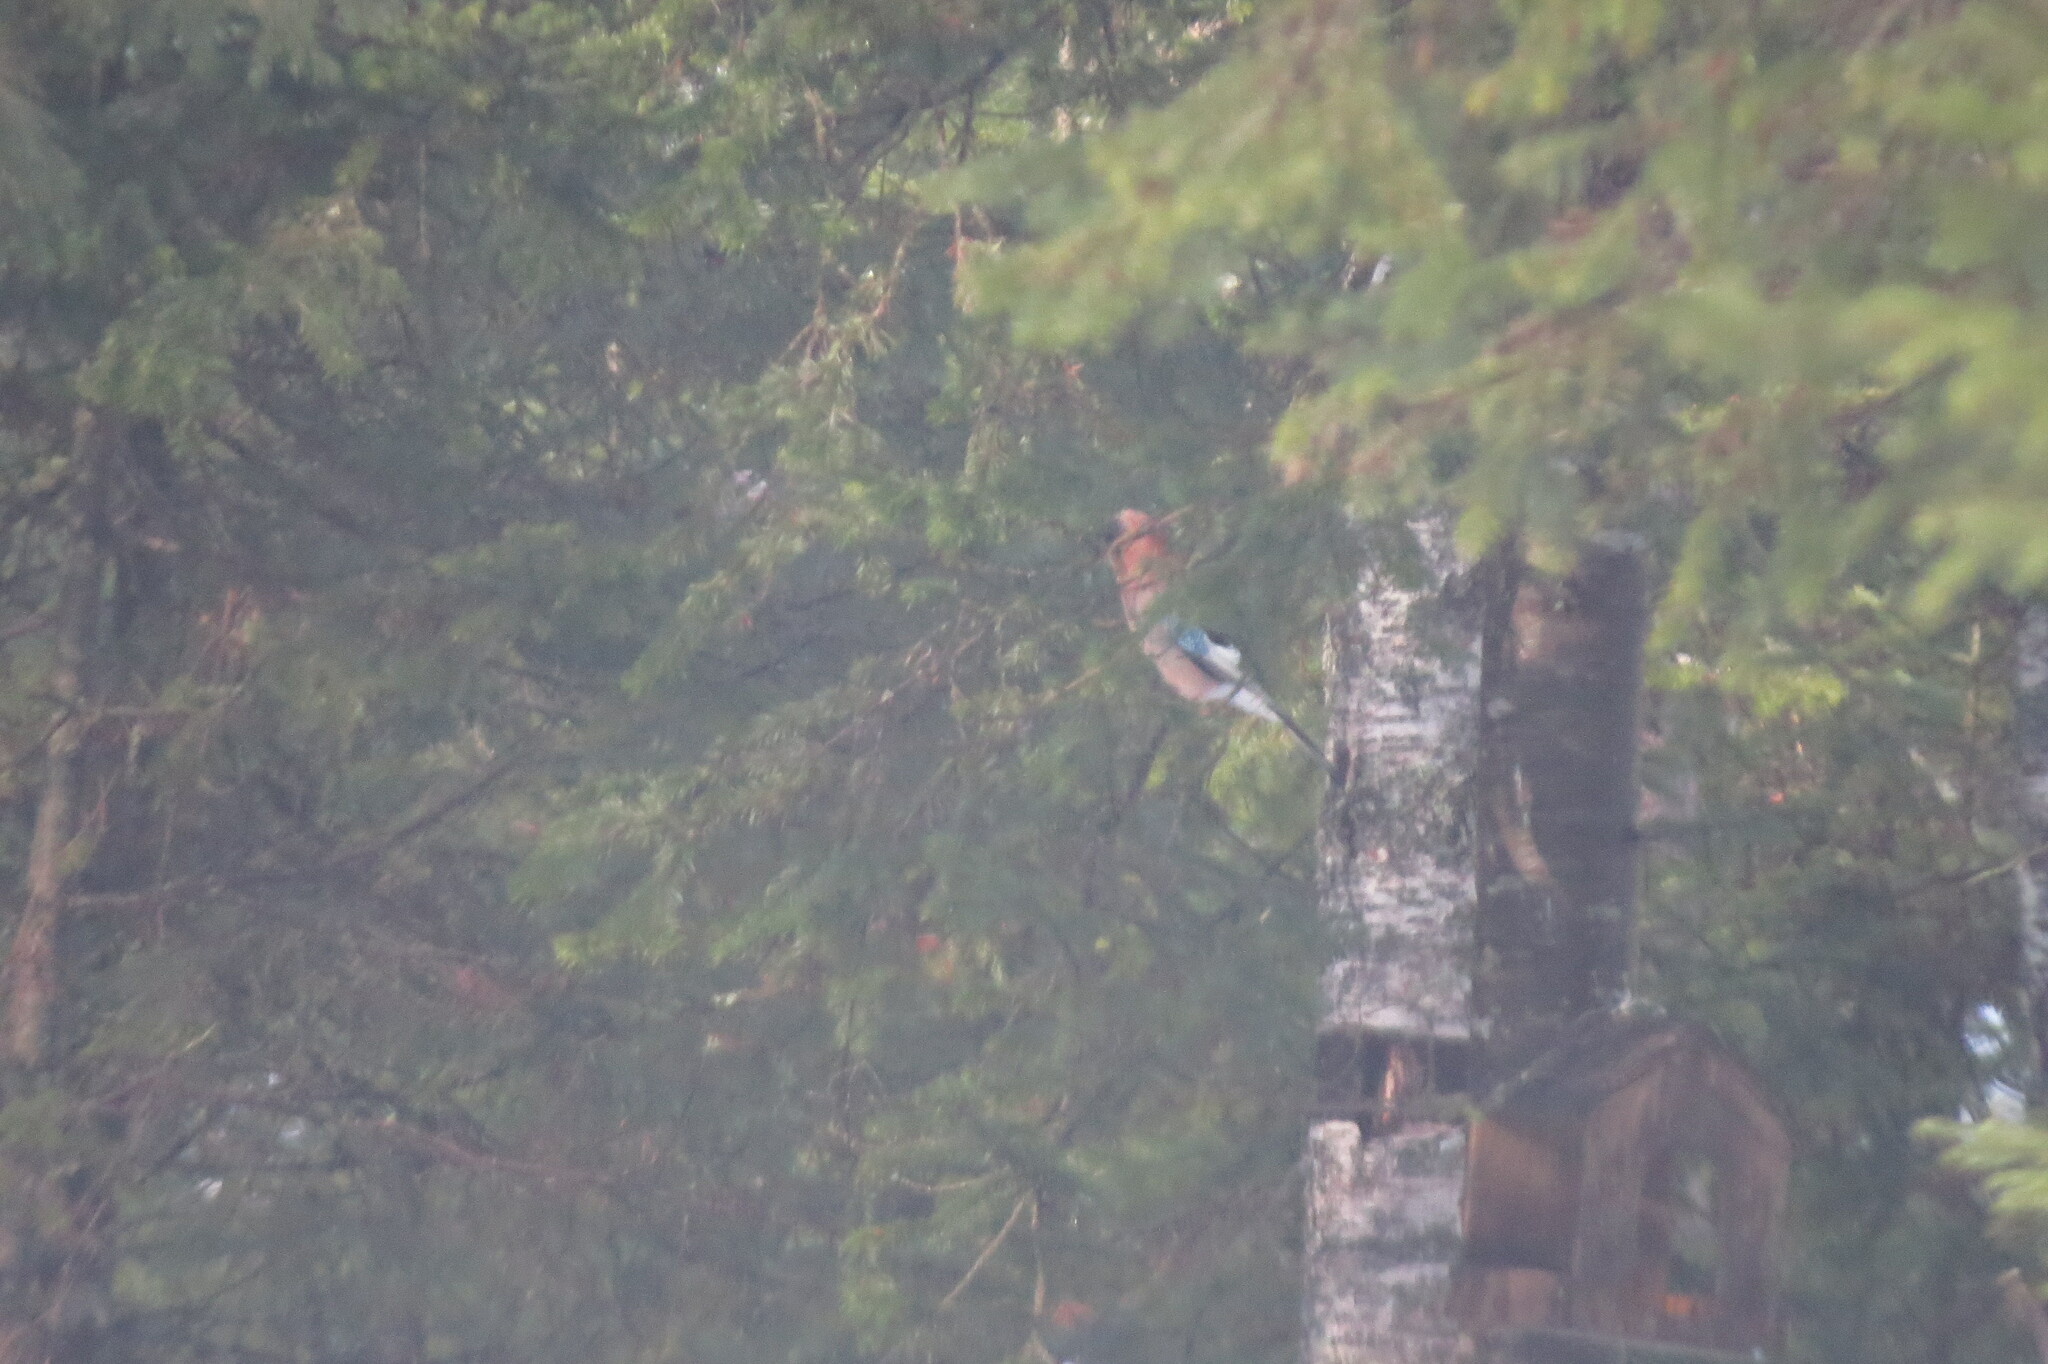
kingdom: Animalia
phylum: Chordata
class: Aves
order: Passeriformes
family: Corvidae
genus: Garrulus
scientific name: Garrulus glandarius
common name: Eurasian jay
